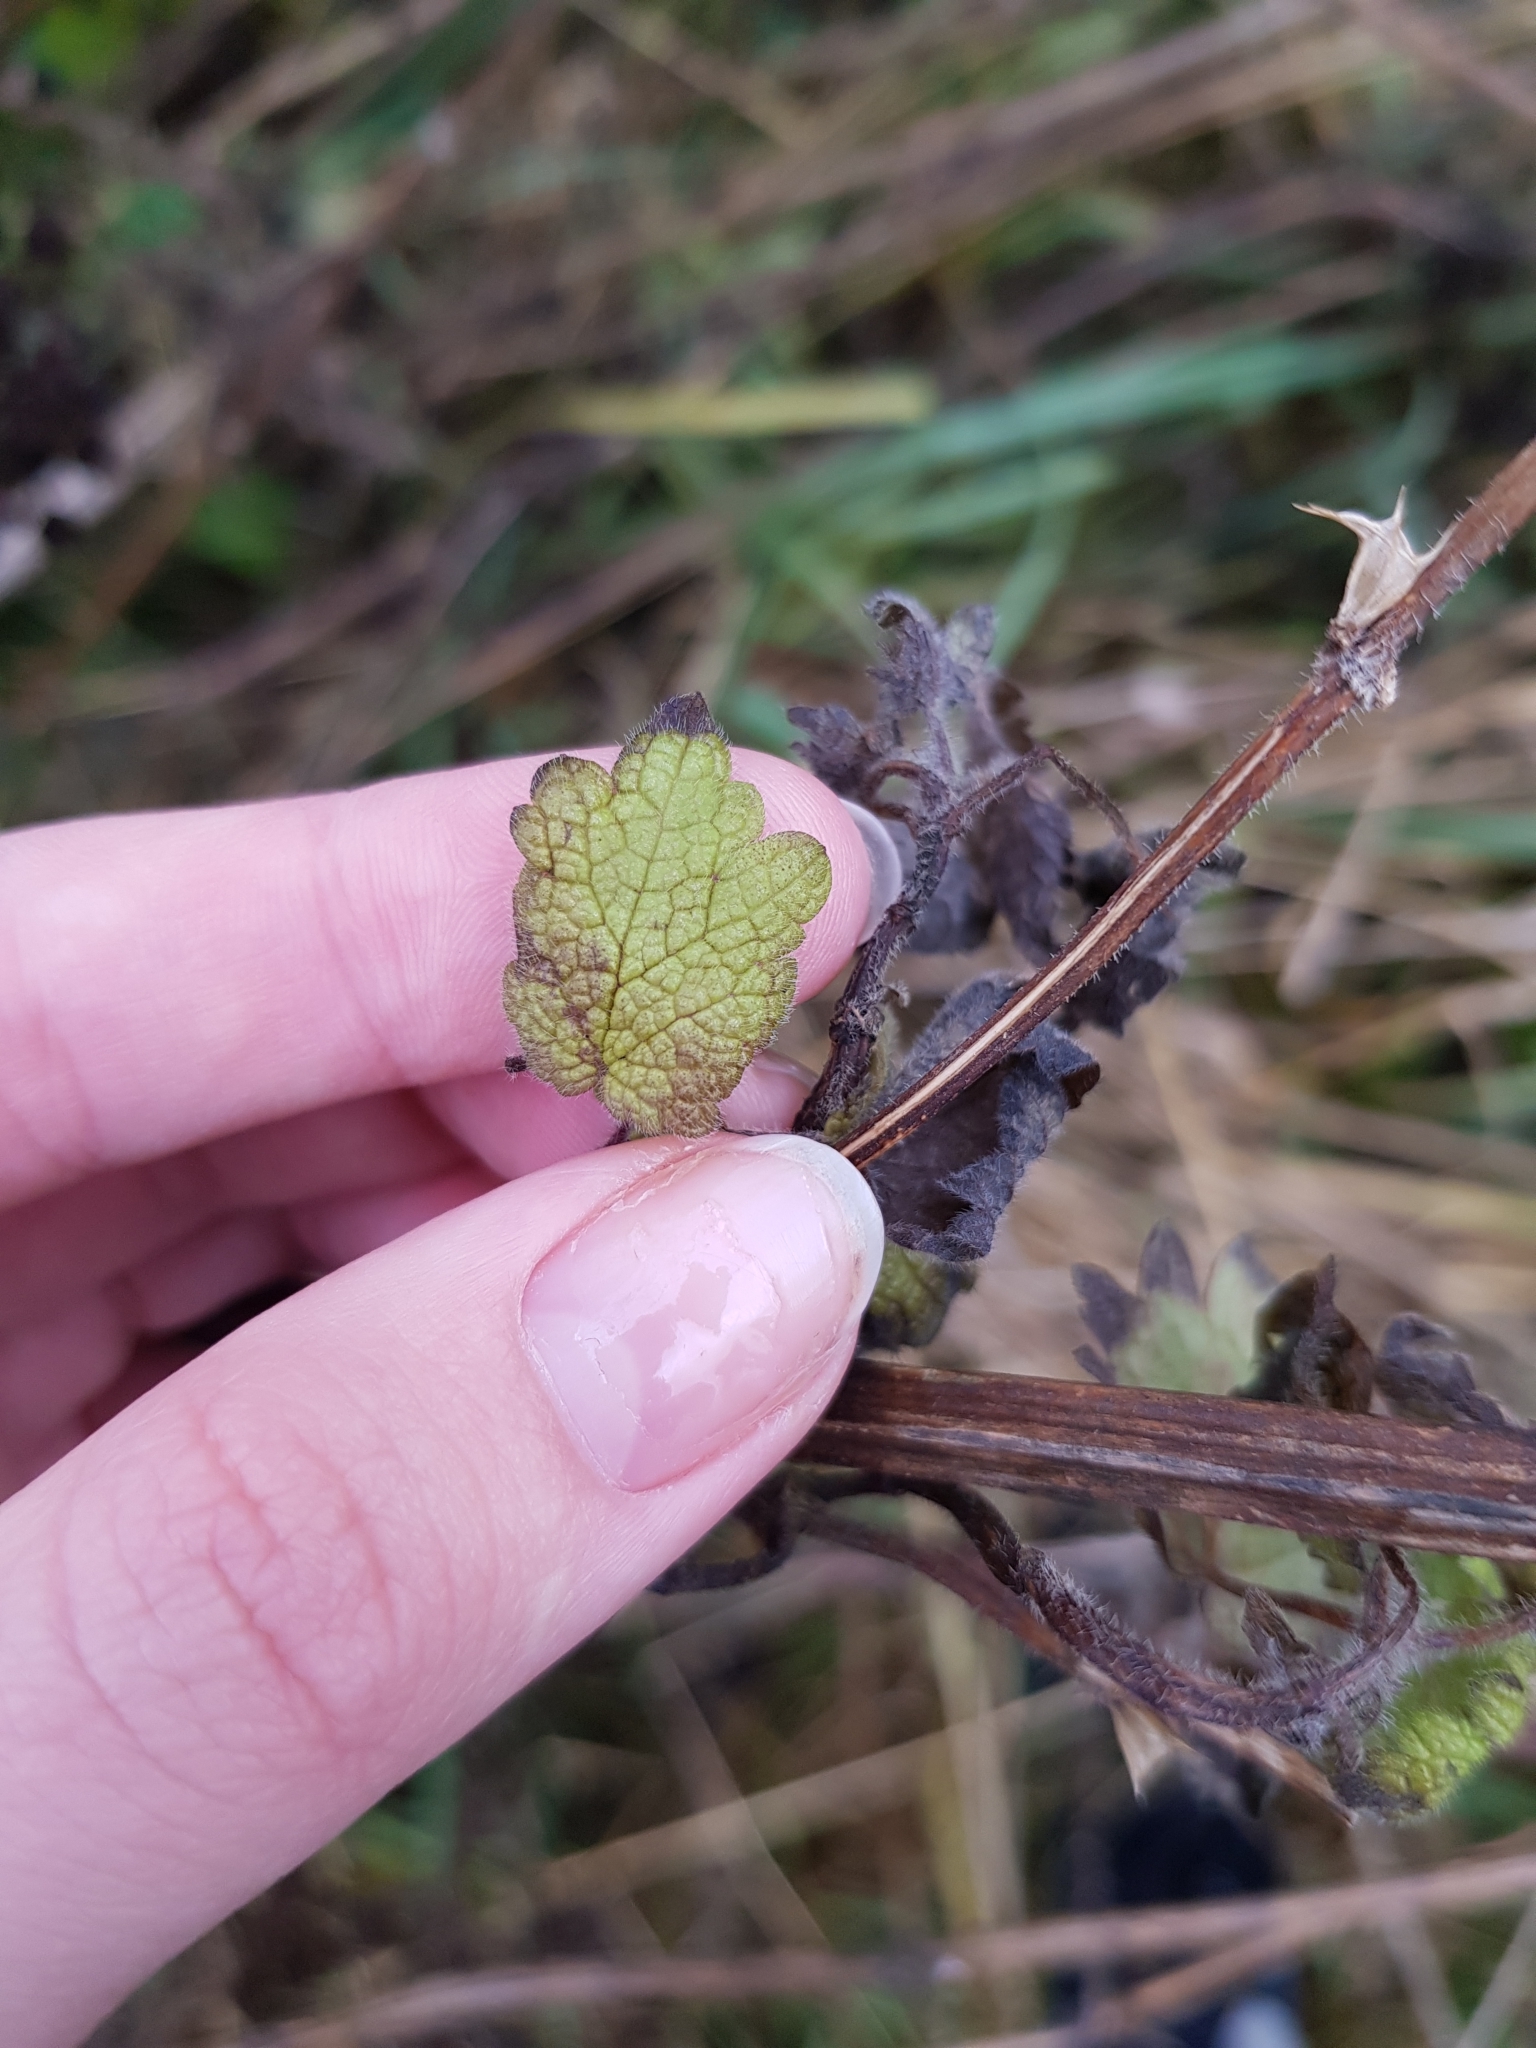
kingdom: Plantae
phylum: Tracheophyta
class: Magnoliopsida
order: Lamiales
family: Lamiaceae
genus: Leonurus
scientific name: Leonurus quinquelobatus
